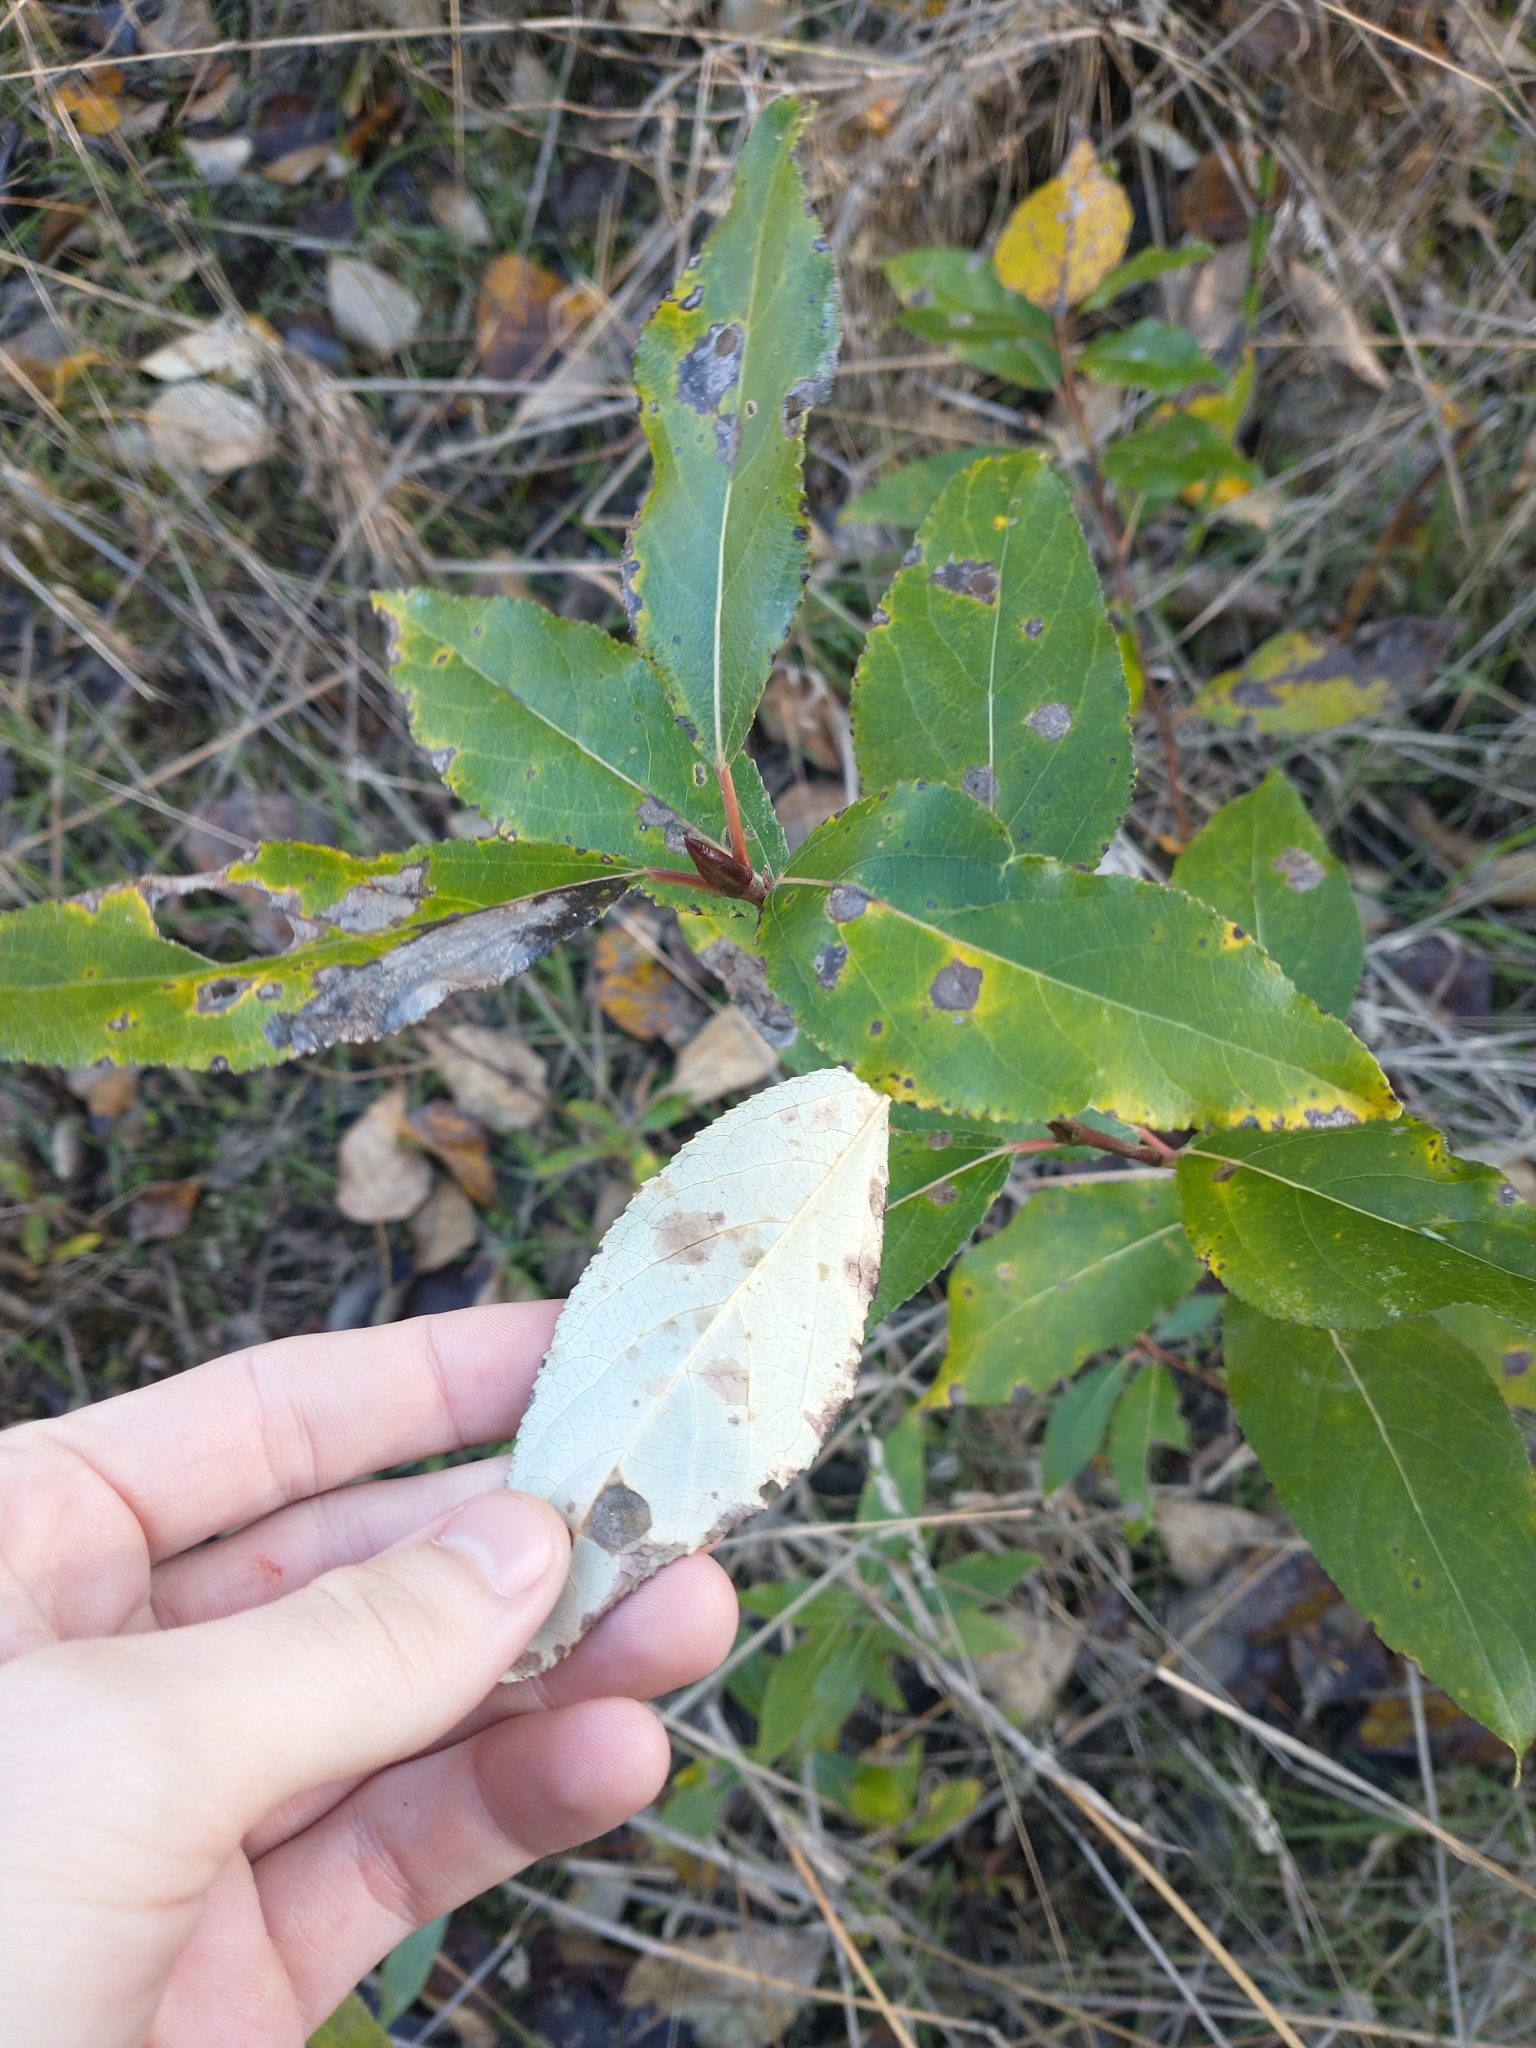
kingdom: Plantae
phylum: Tracheophyta
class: Magnoliopsida
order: Malpighiales
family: Salicaceae
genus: Populus
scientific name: Populus trichocarpa
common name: Black cottonwood
